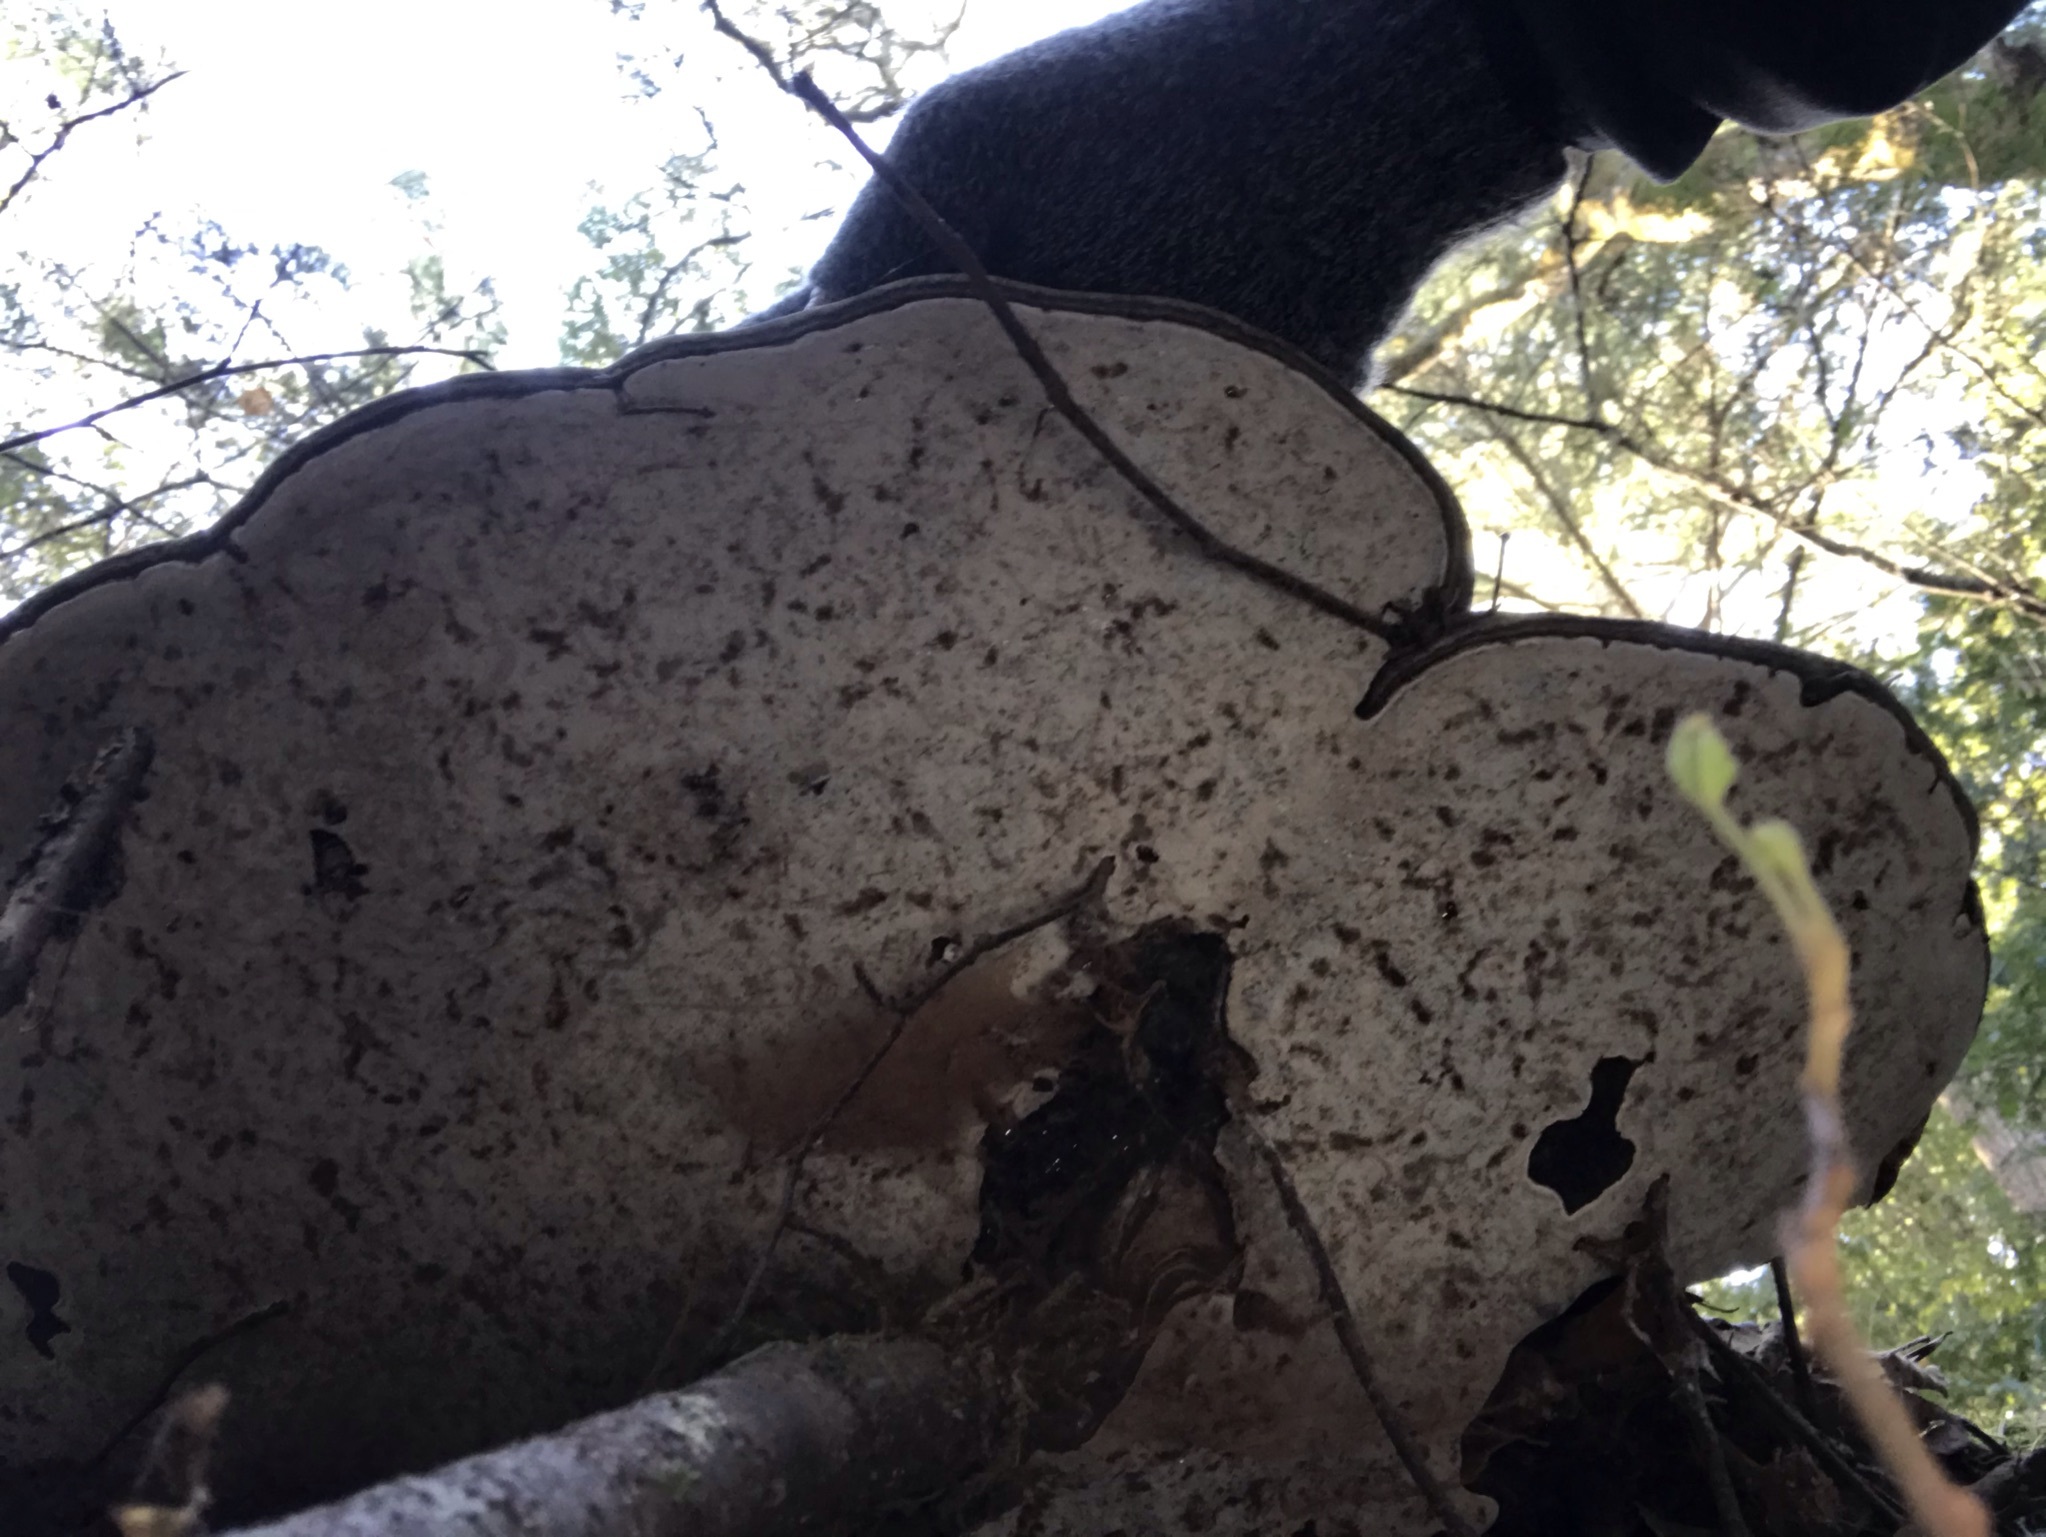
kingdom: Fungi
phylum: Basidiomycota
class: Agaricomycetes
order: Polyporales
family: Polyporaceae
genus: Ganoderma
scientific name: Ganoderma brownii
